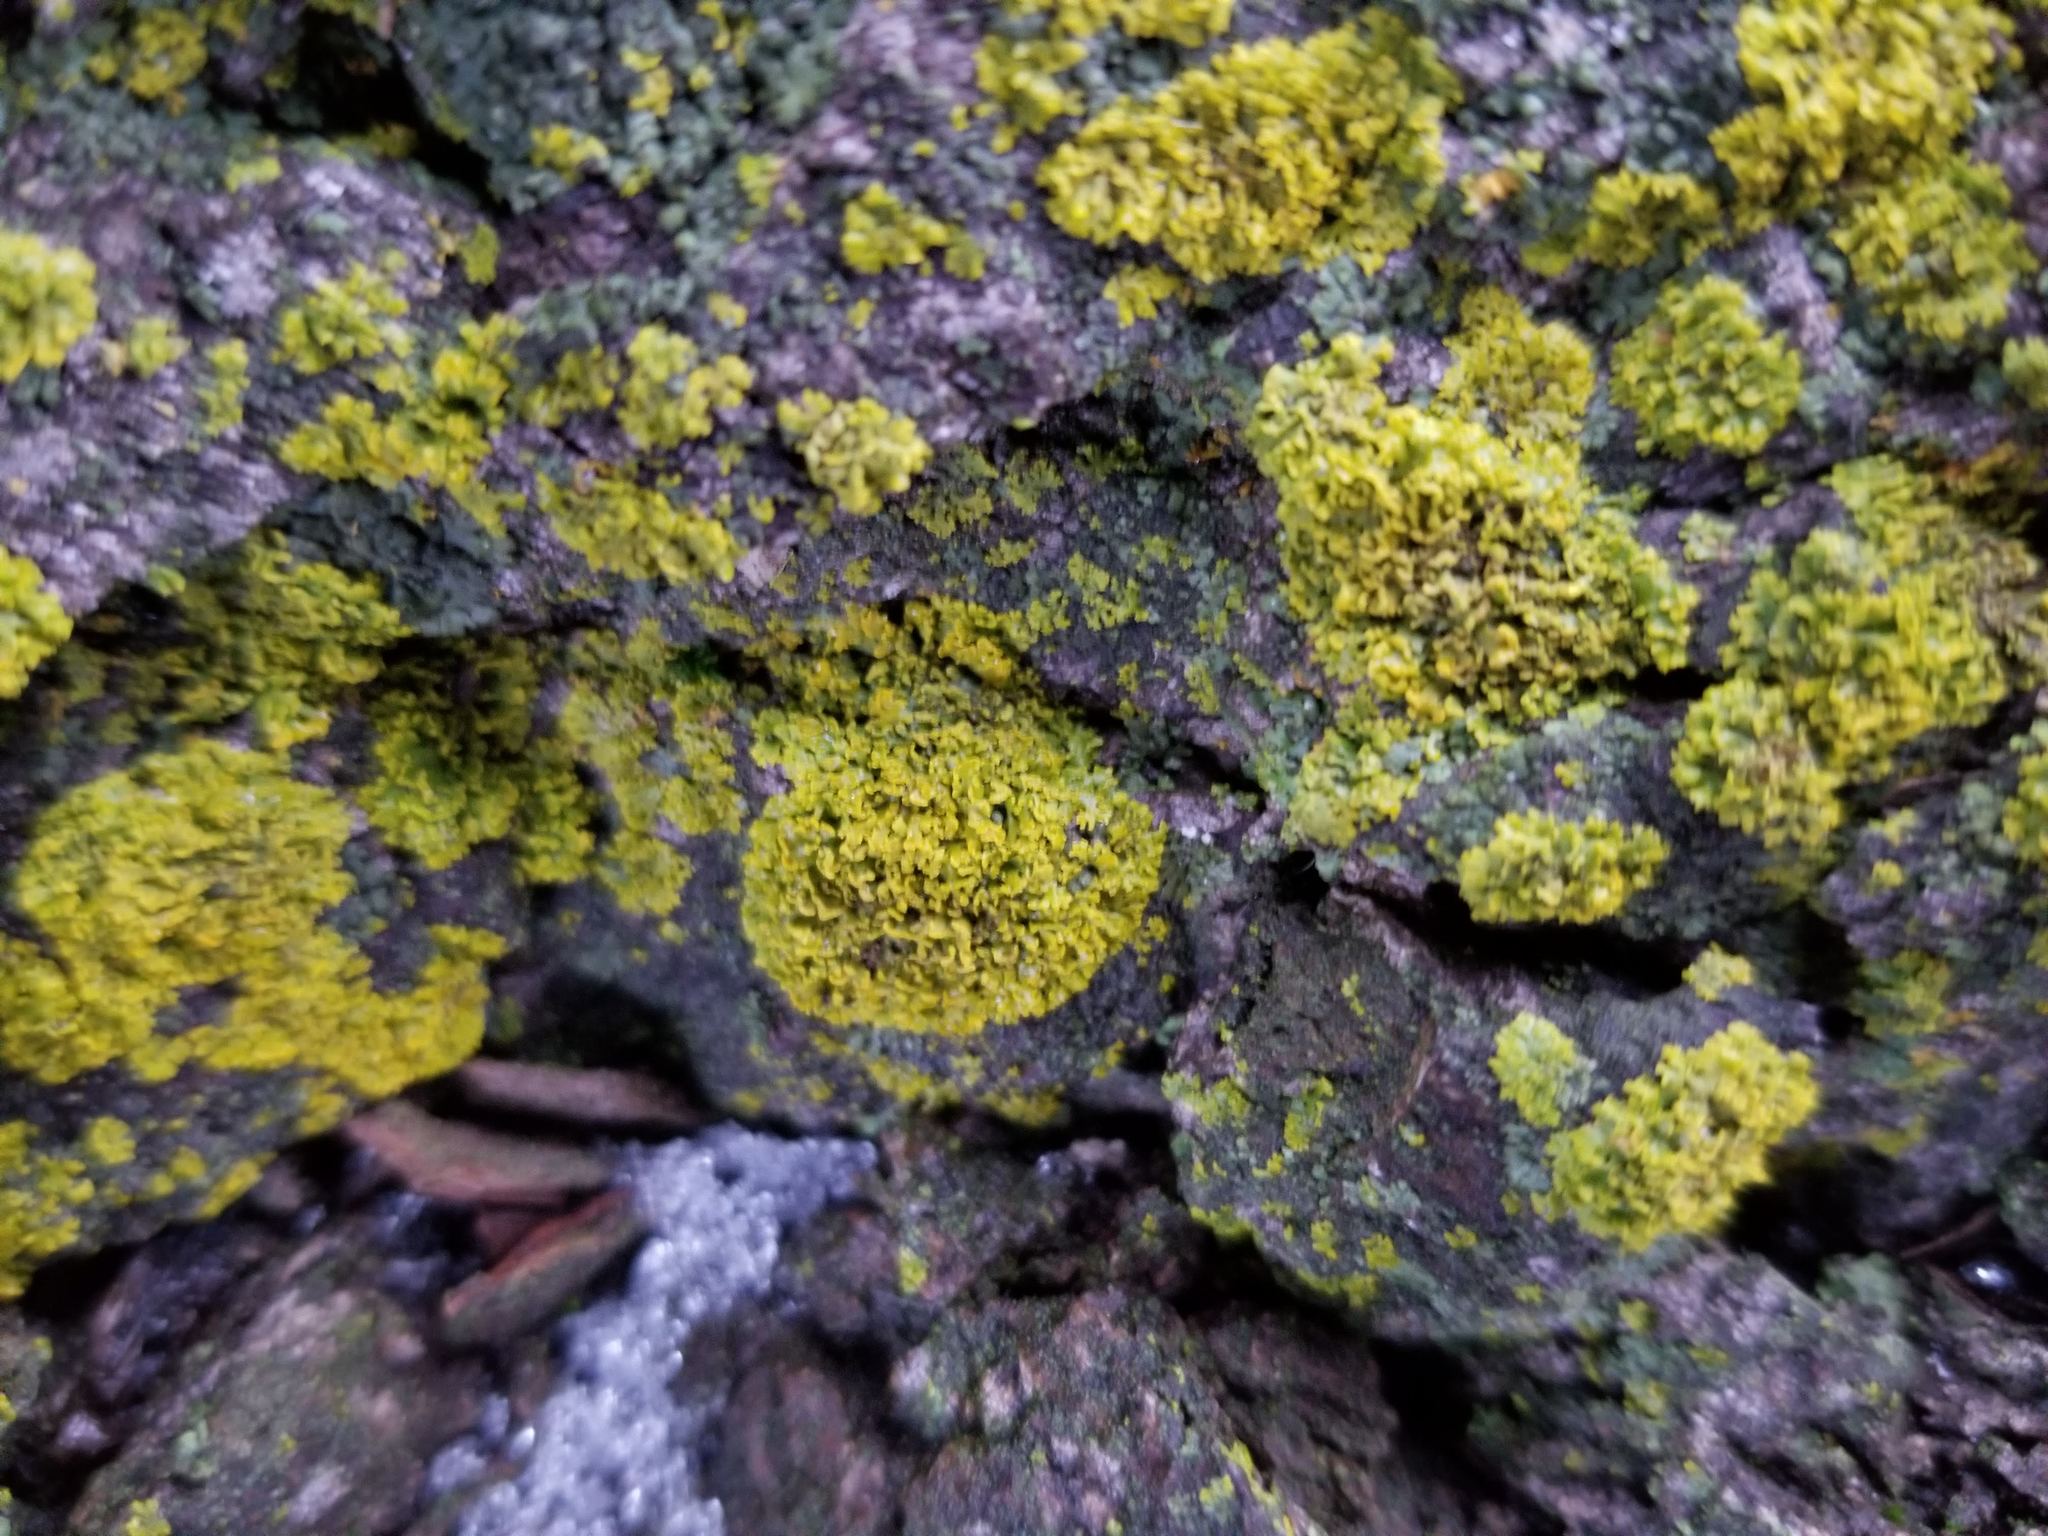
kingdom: Fungi
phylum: Ascomycota
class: Lecanoromycetes
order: Teloschistales
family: Teloschistaceae
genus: Gallowayella
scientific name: Gallowayella weberi
